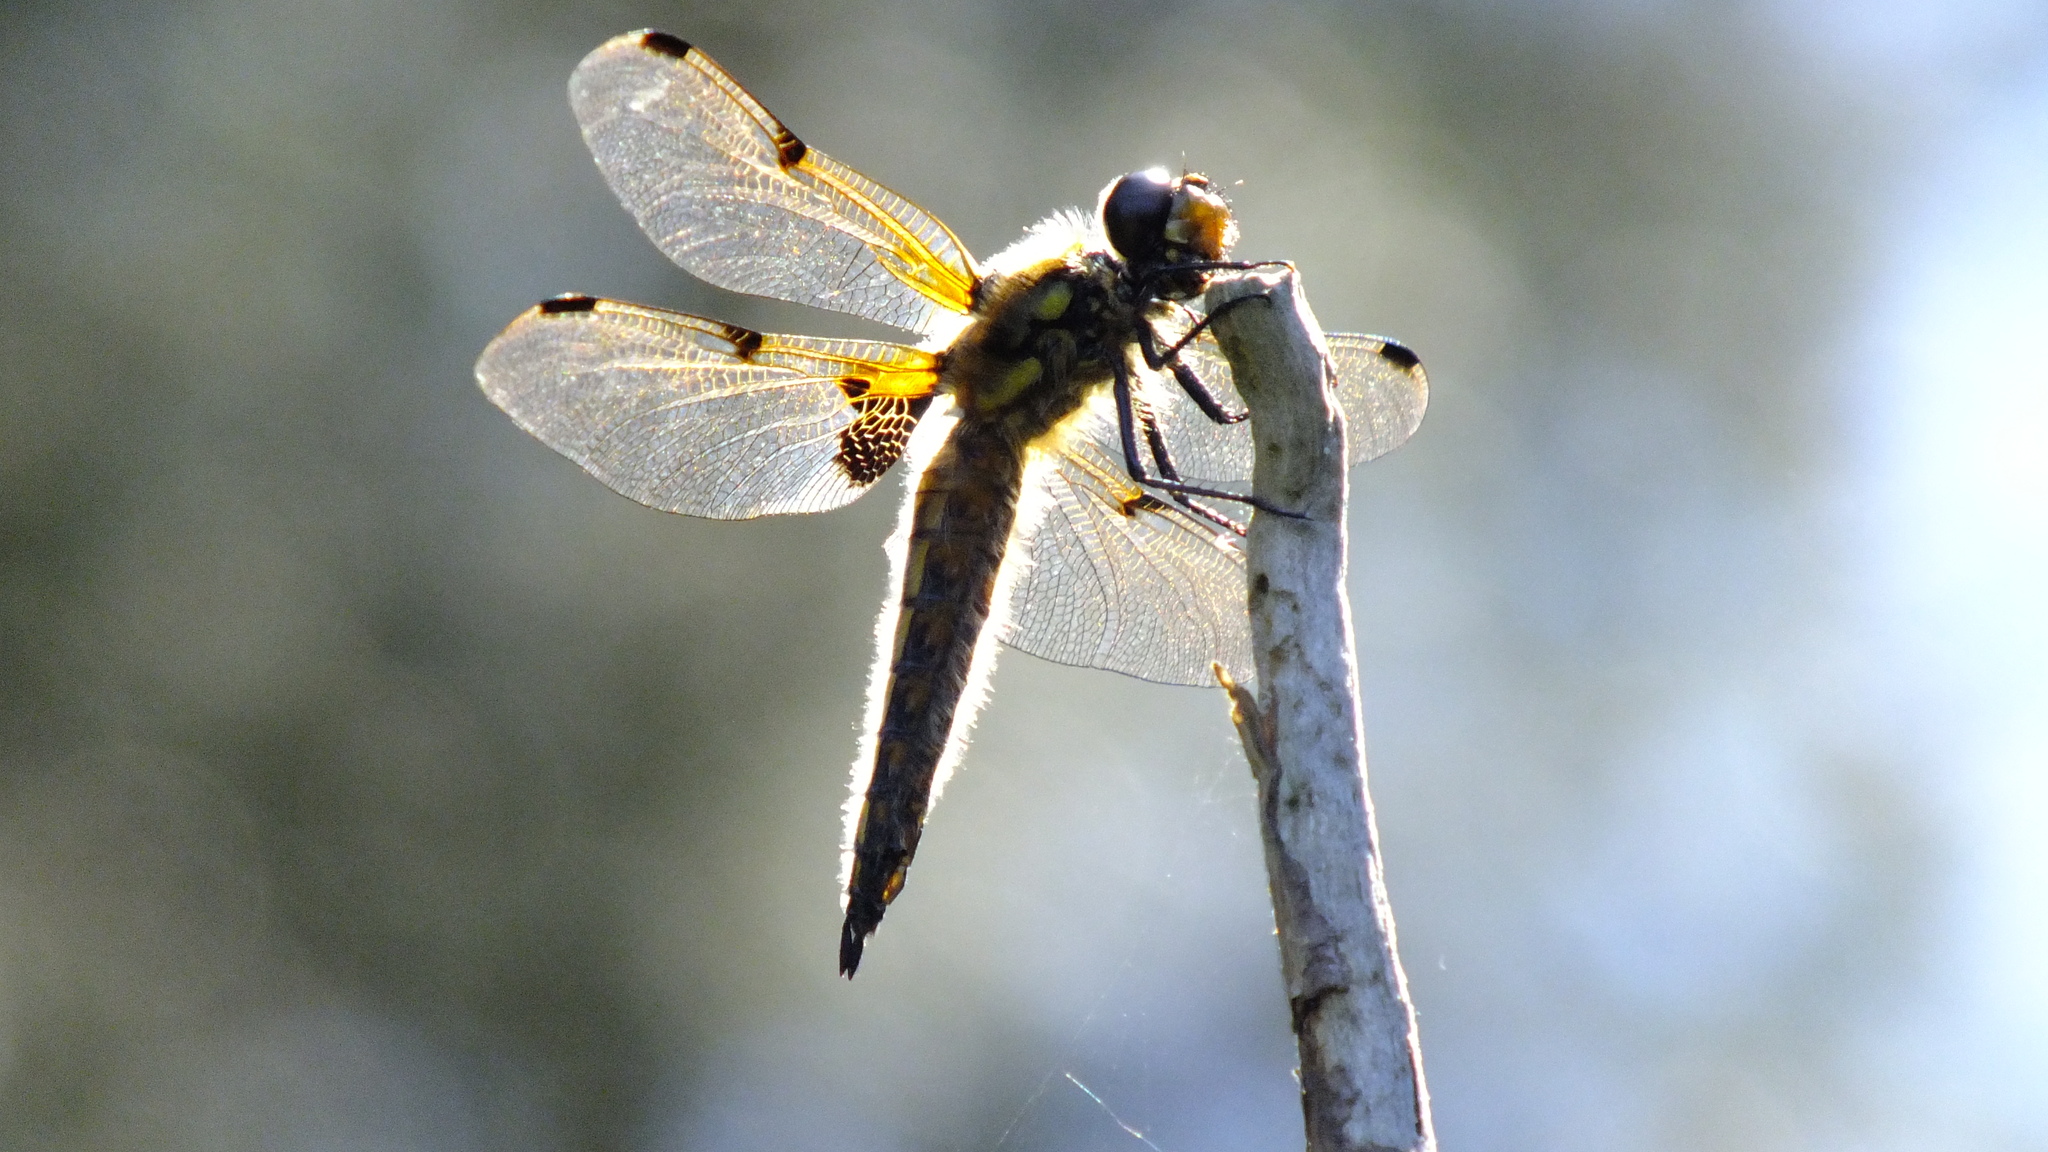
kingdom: Animalia
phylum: Arthropoda
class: Insecta
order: Odonata
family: Libellulidae
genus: Libellula
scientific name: Libellula quadrimaculata
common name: Four-spotted chaser
